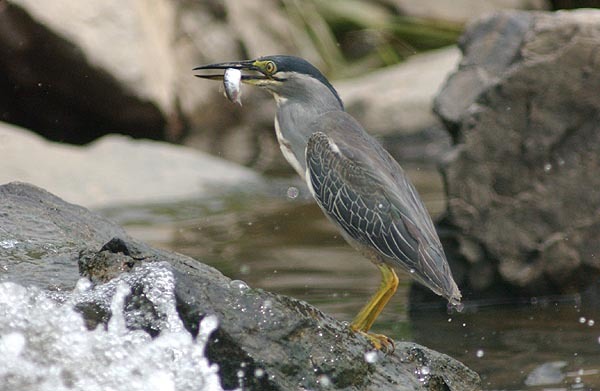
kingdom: Animalia
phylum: Chordata
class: Aves
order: Pelecaniformes
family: Ardeidae
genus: Butorides
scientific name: Butorides striata
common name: Striated heron
